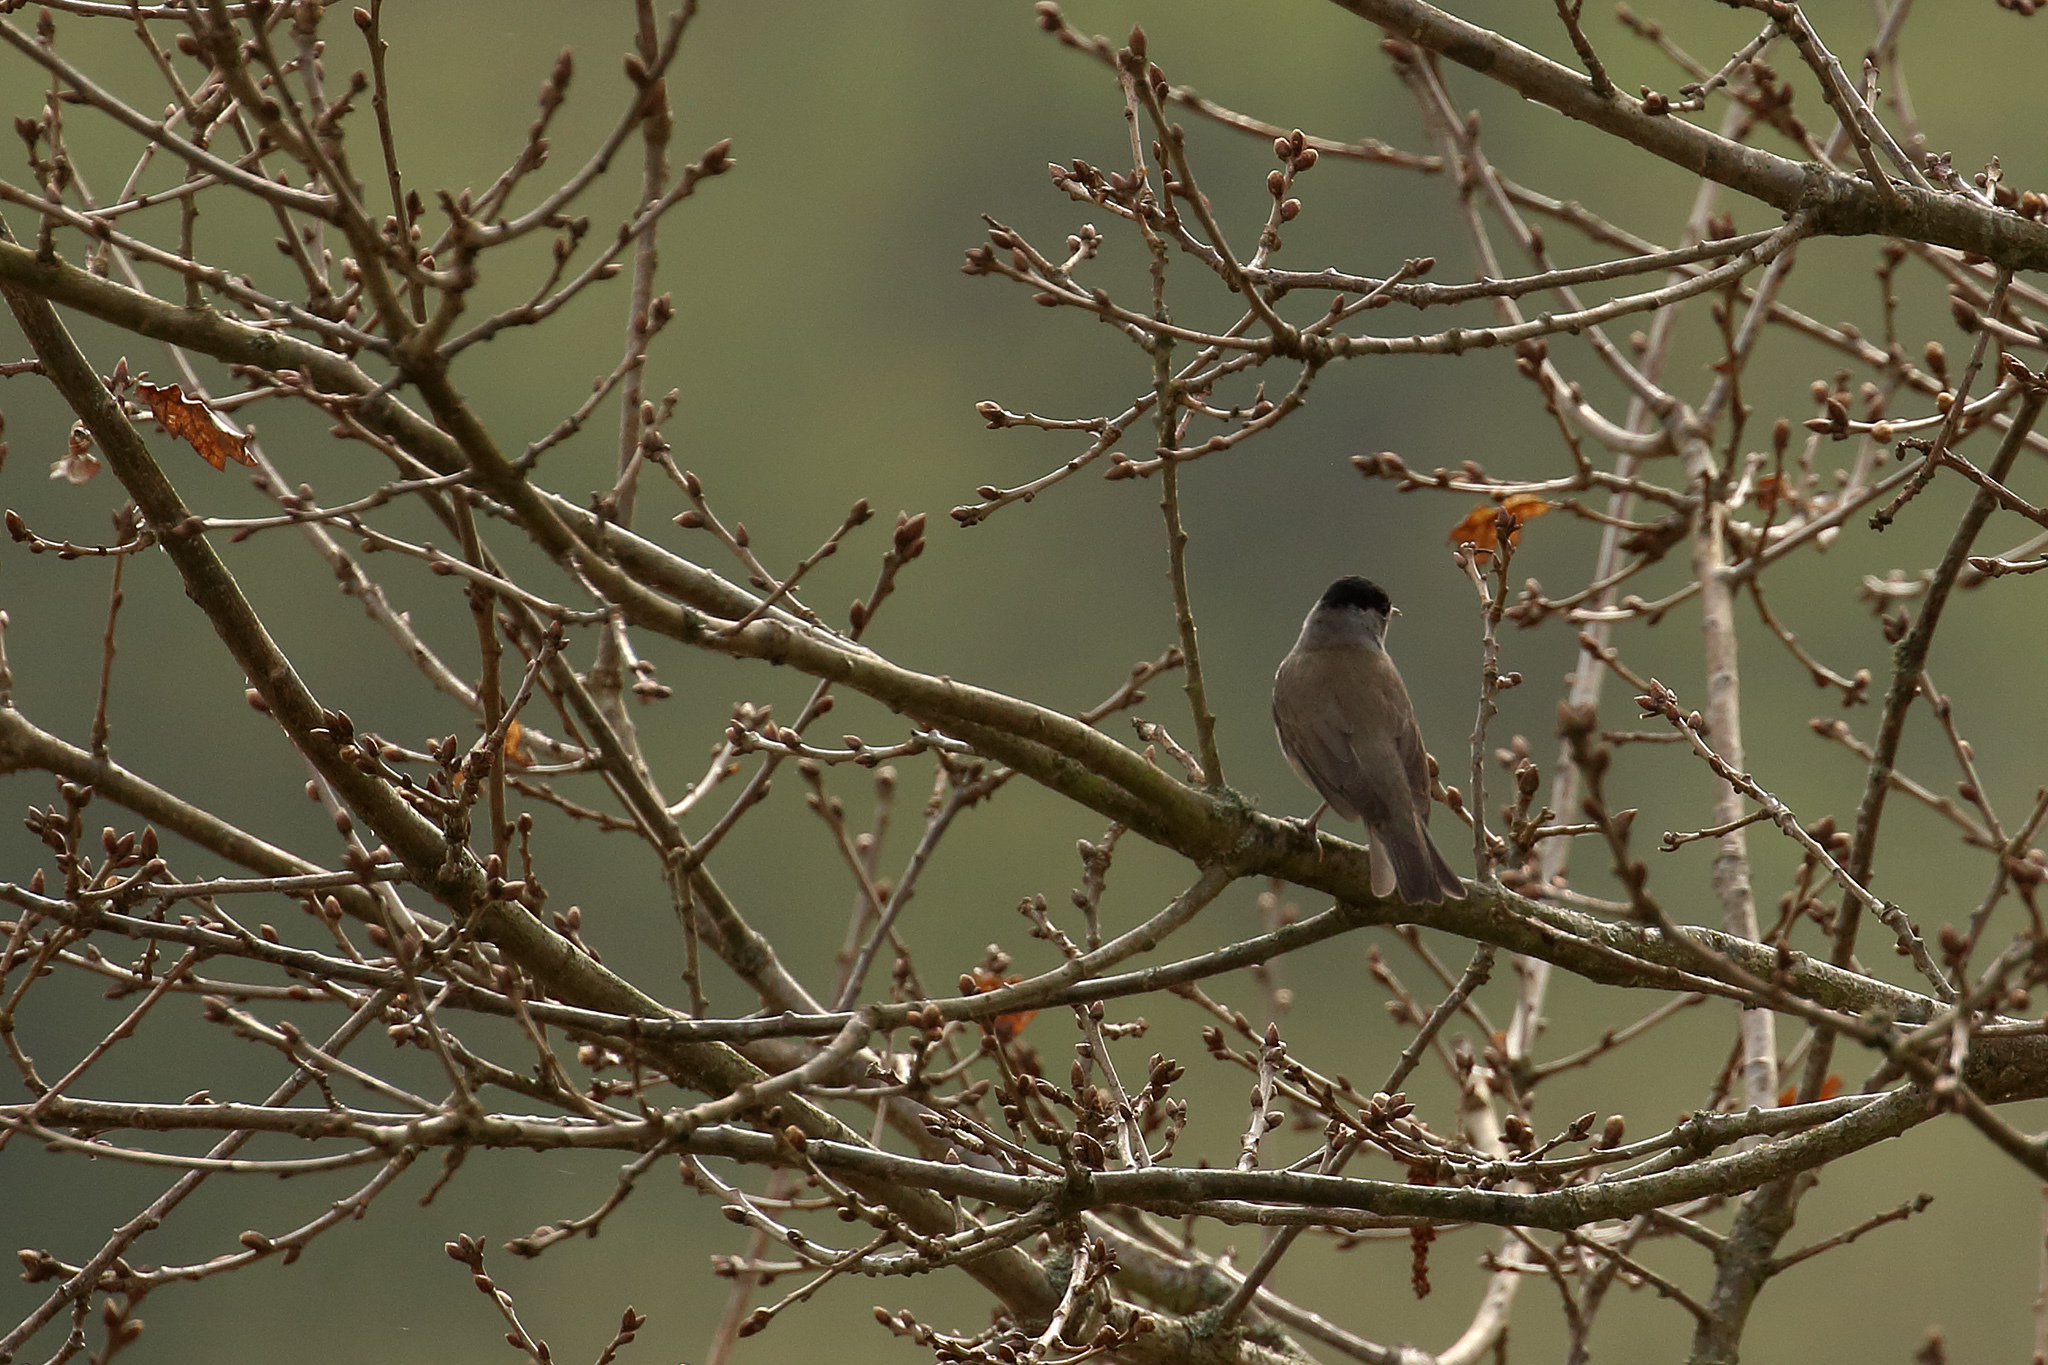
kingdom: Animalia
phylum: Chordata
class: Aves
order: Passeriformes
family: Sylviidae
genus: Sylvia
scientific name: Sylvia atricapilla
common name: Eurasian blackcap
